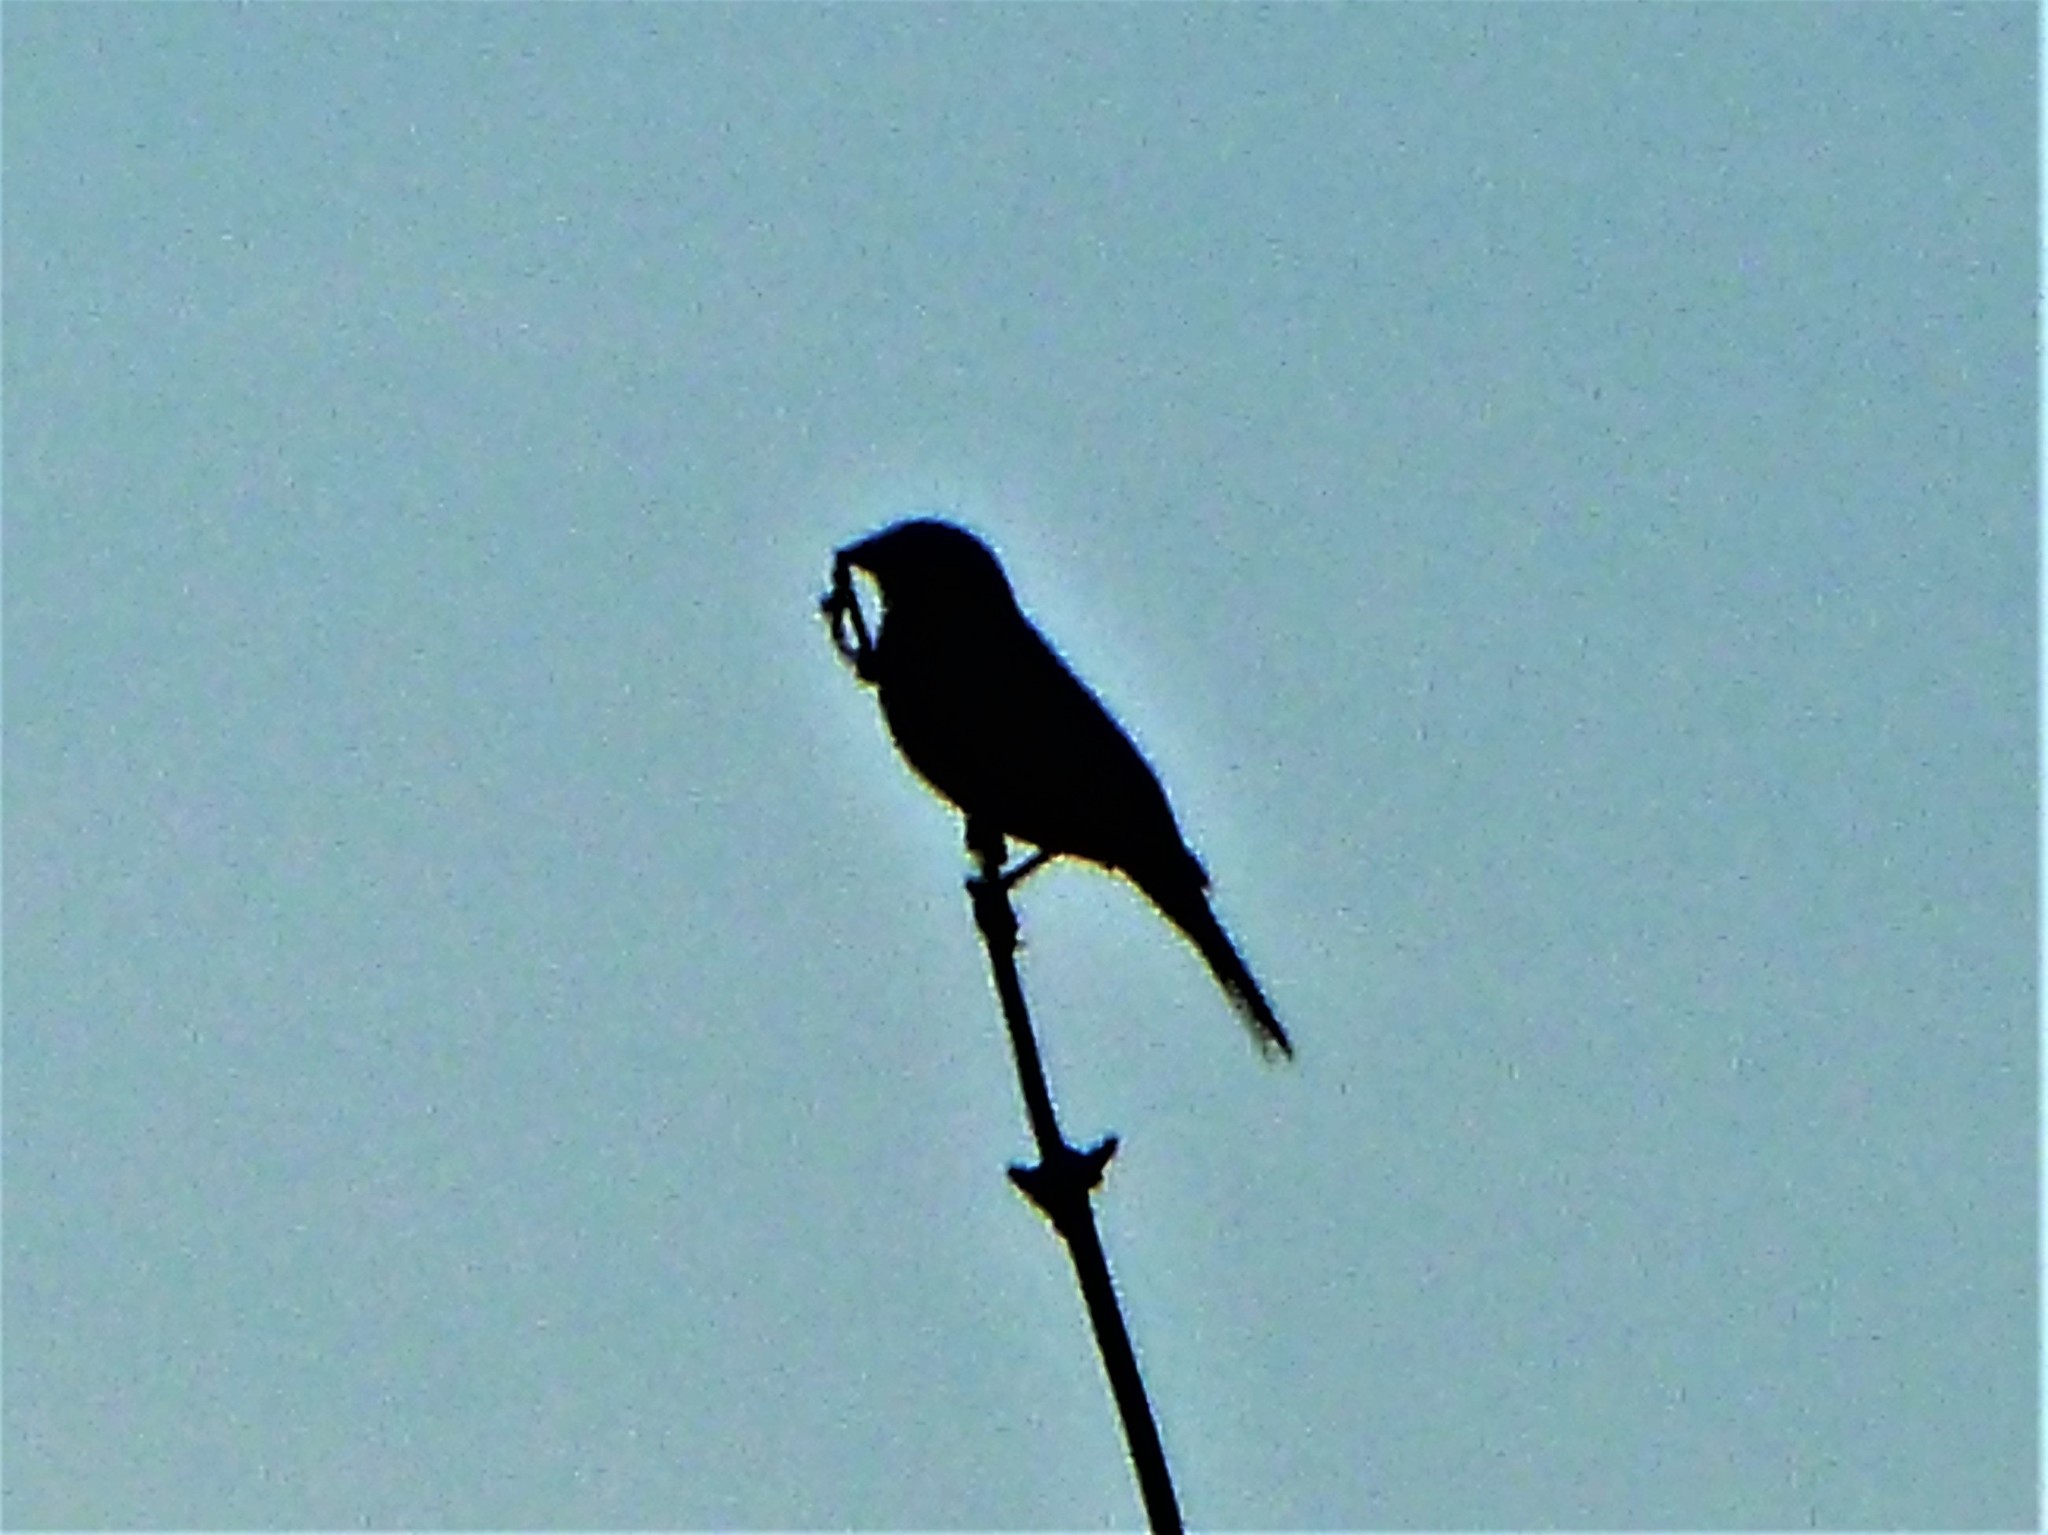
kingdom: Animalia
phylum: Chordata
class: Aves
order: Passeriformes
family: Emberizidae
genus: Emberiza
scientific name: Emberiza calandra
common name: Corn bunting
